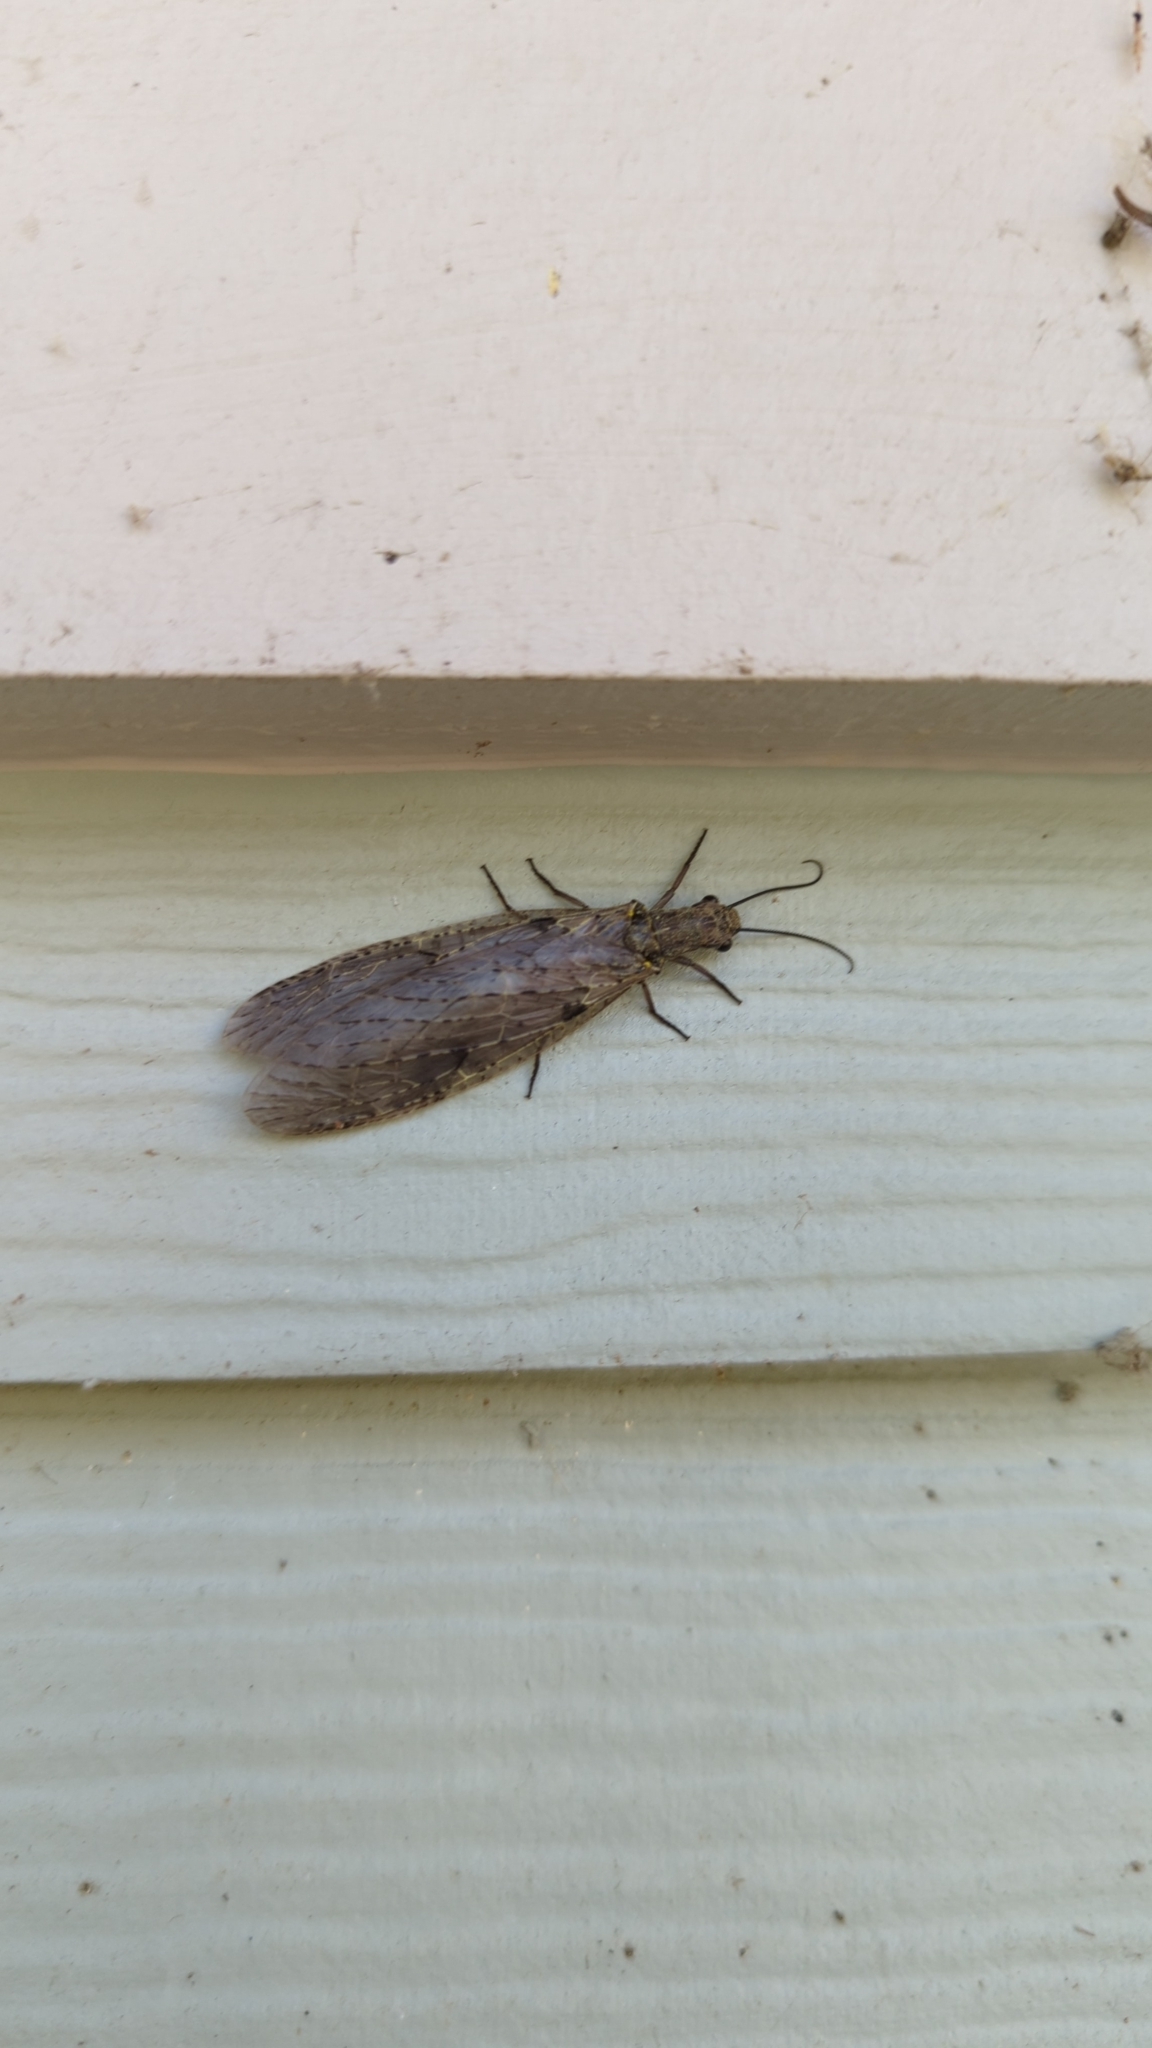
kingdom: Animalia
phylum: Arthropoda
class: Insecta
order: Megaloptera
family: Corydalidae
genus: Chauliodes
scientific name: Chauliodes rastricornis
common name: Spring fishfly
